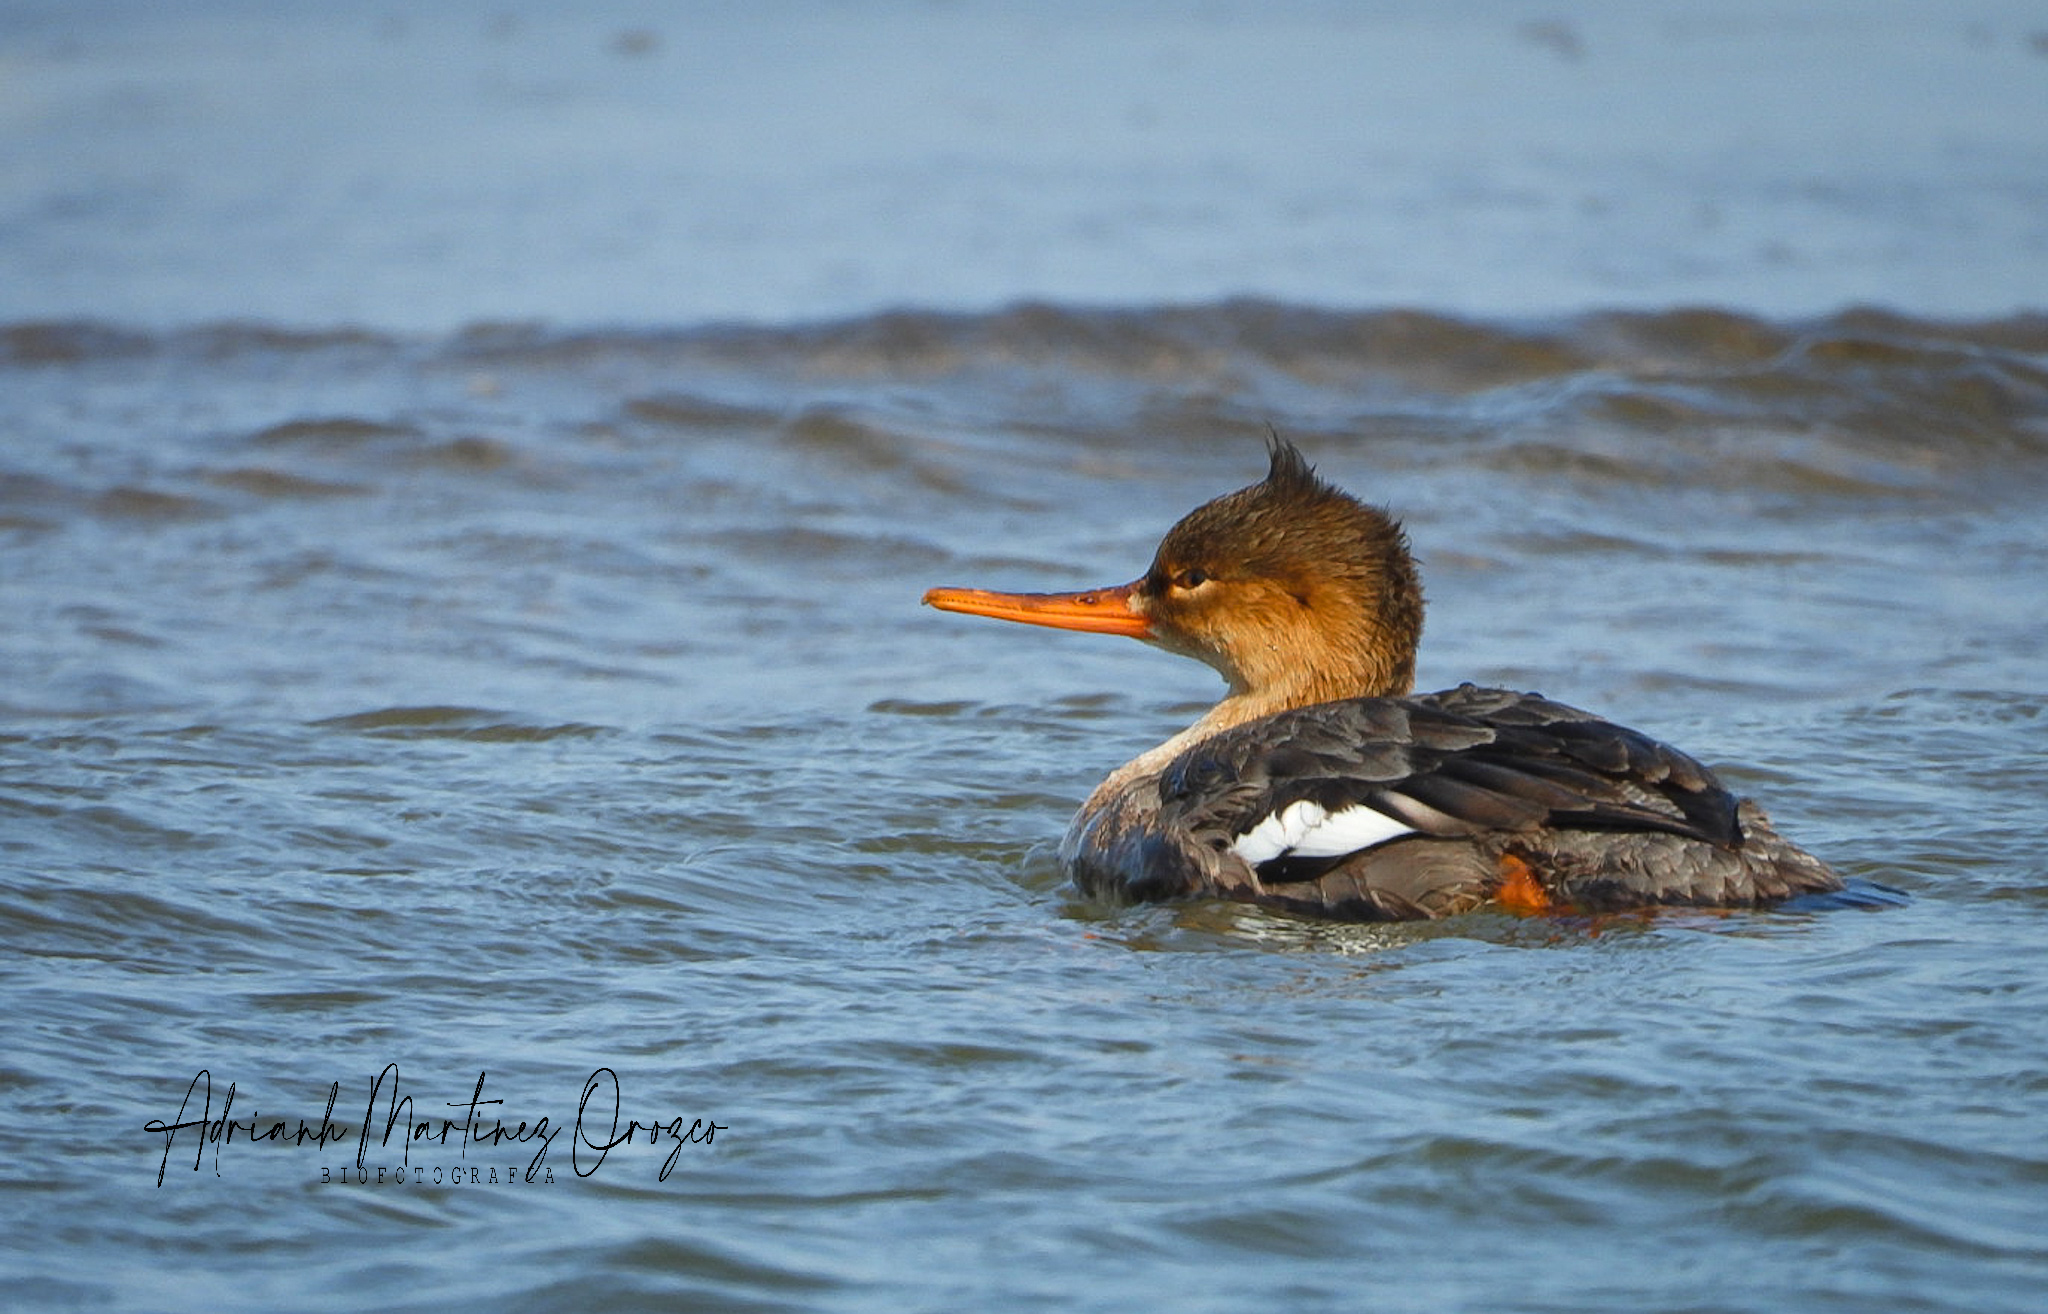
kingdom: Animalia
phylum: Chordata
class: Aves
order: Anseriformes
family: Anatidae
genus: Mergus
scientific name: Mergus serrator
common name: Red-breasted merganser
